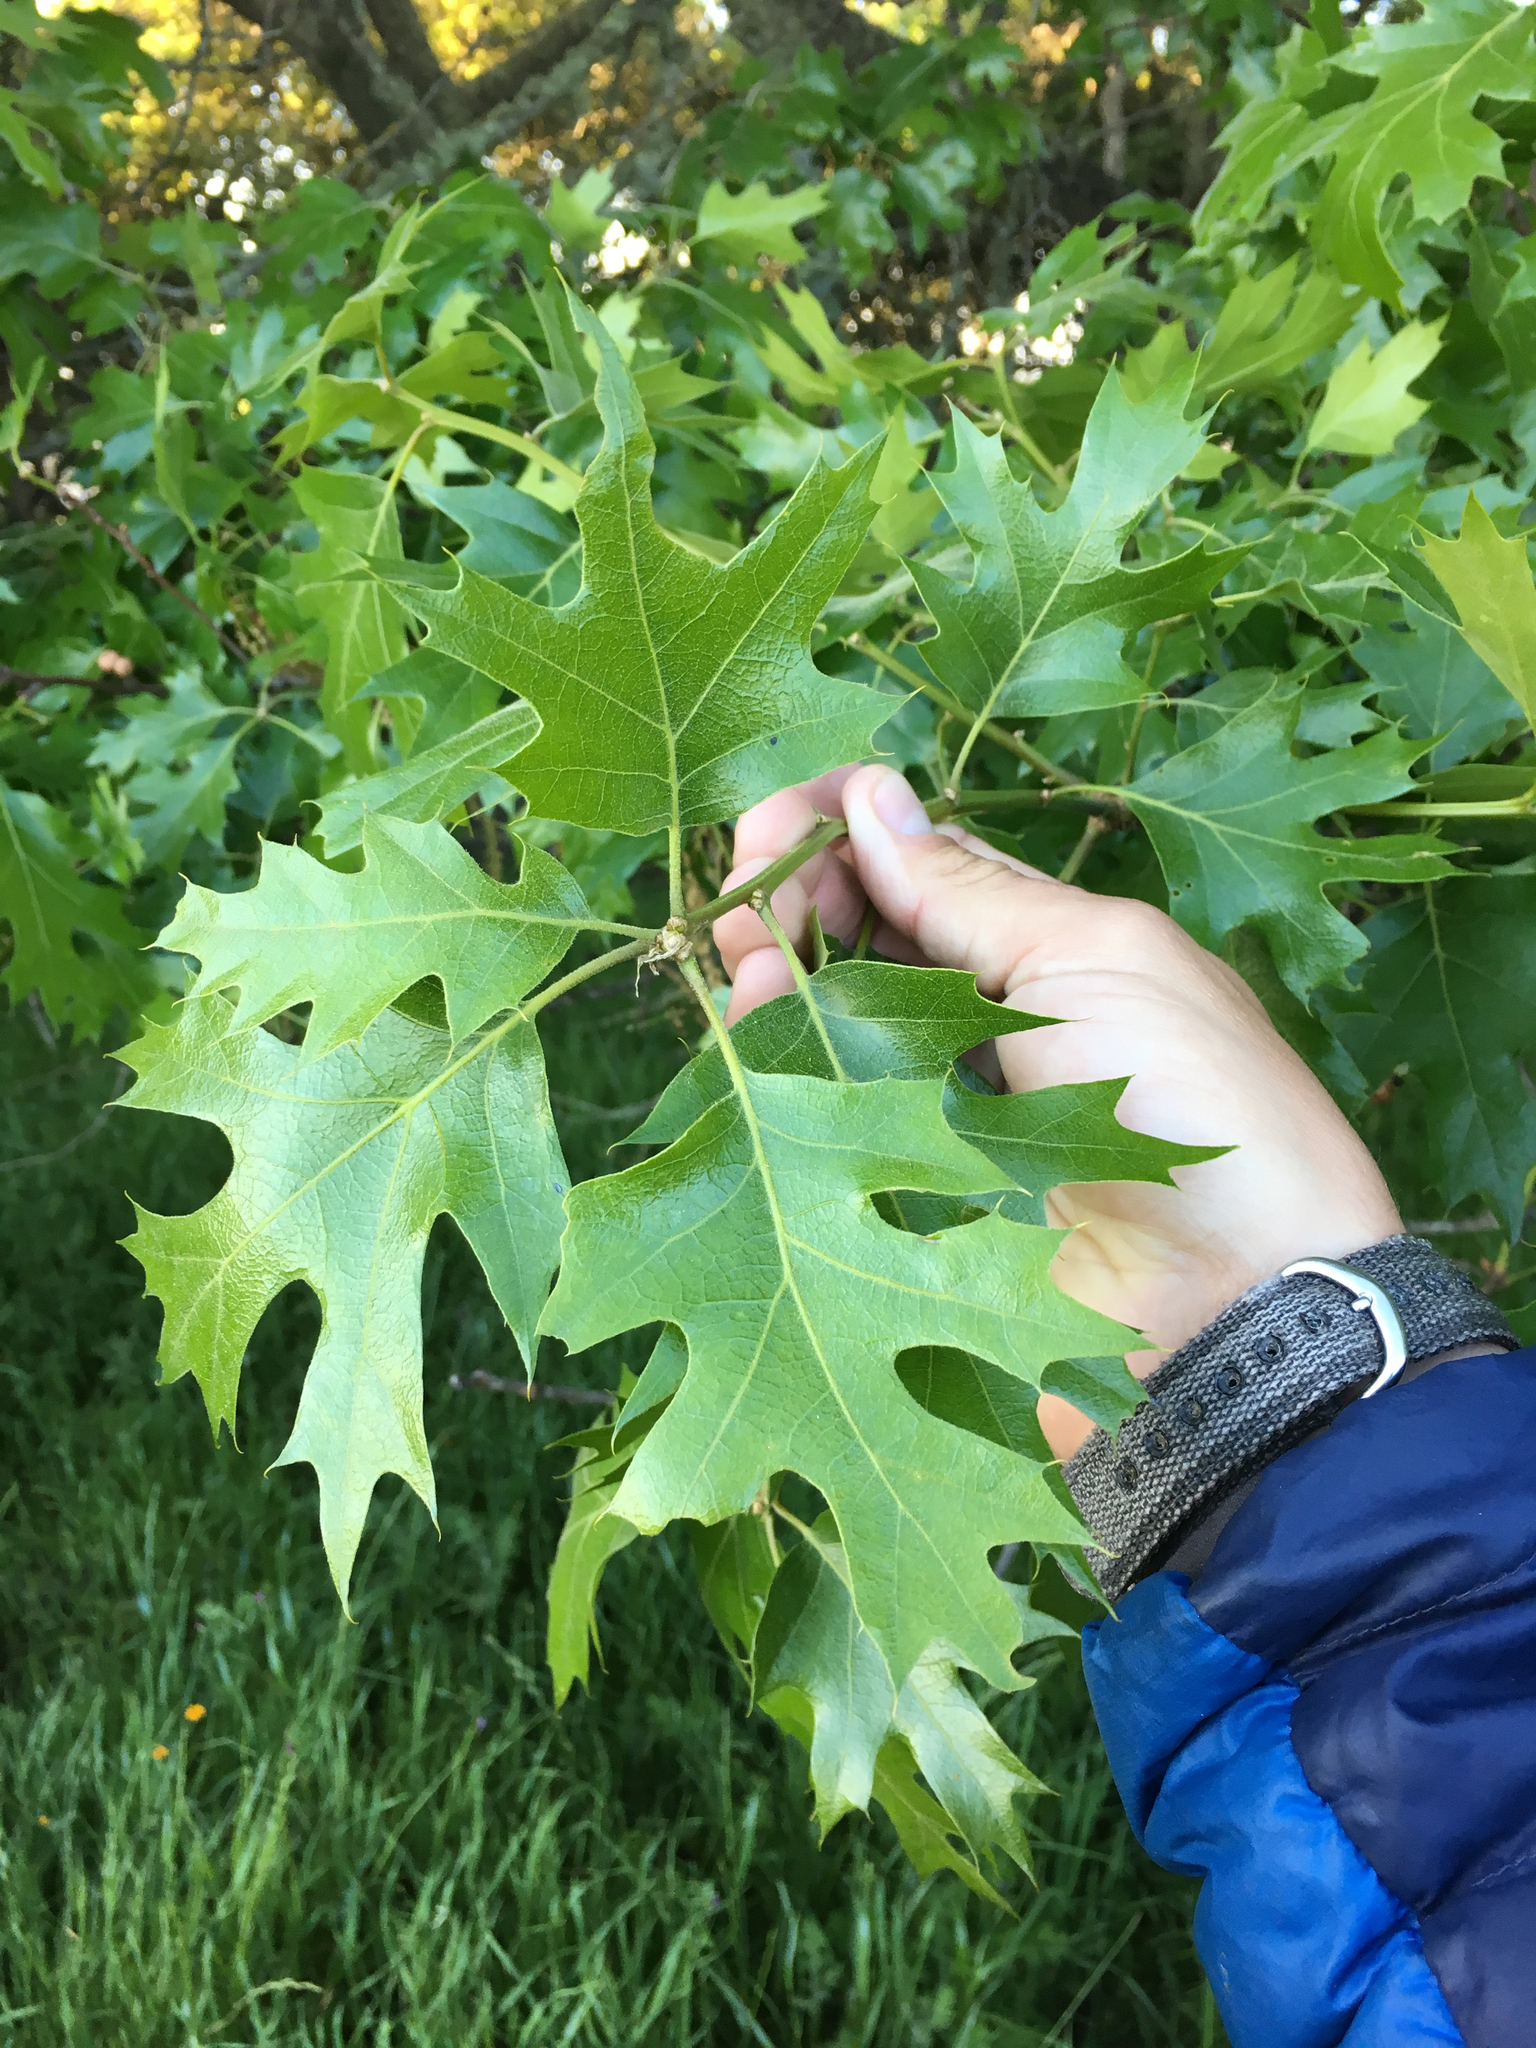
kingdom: Plantae
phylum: Tracheophyta
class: Magnoliopsida
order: Fagales
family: Fagaceae
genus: Quercus
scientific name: Quercus kelloggii
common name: California black oak
